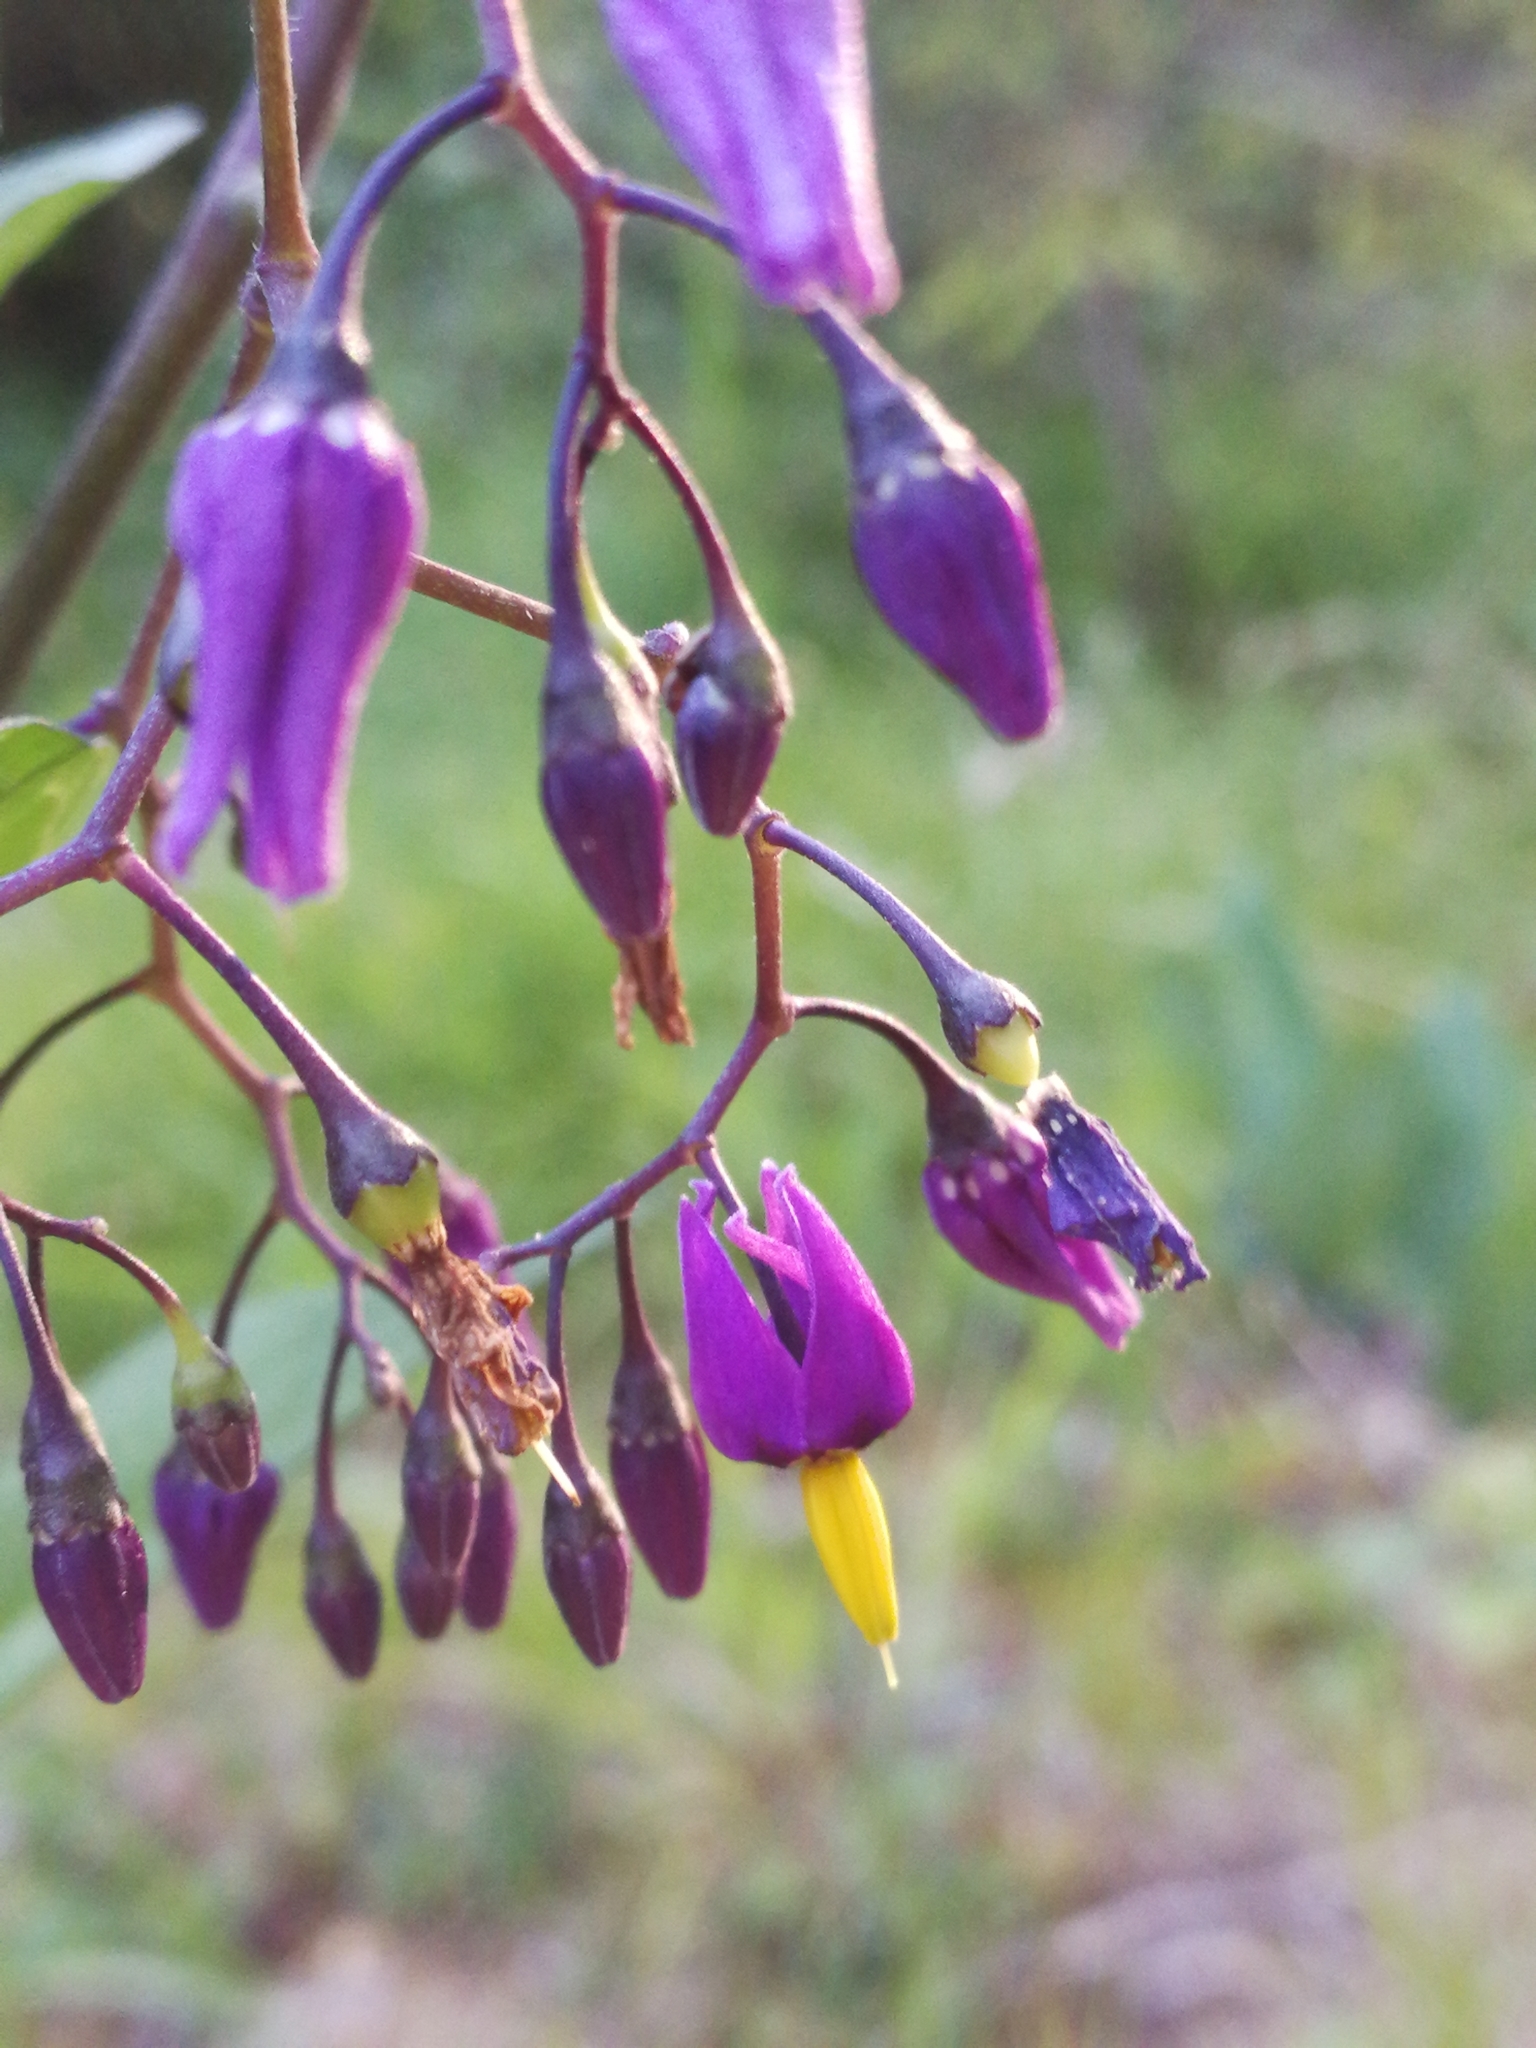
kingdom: Plantae
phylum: Tracheophyta
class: Magnoliopsida
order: Solanales
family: Solanaceae
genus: Solanum
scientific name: Solanum dulcamara
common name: Climbing nightshade
